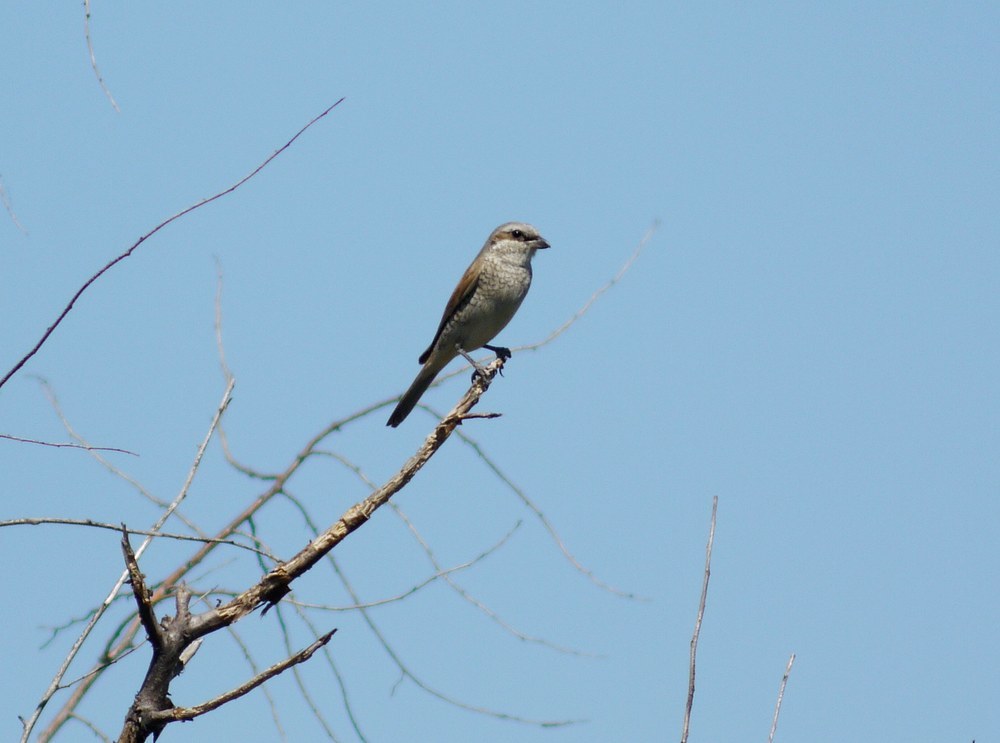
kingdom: Animalia
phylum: Chordata
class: Aves
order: Passeriformes
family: Laniidae
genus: Lanius
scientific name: Lanius collurio
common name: Red-backed shrike
